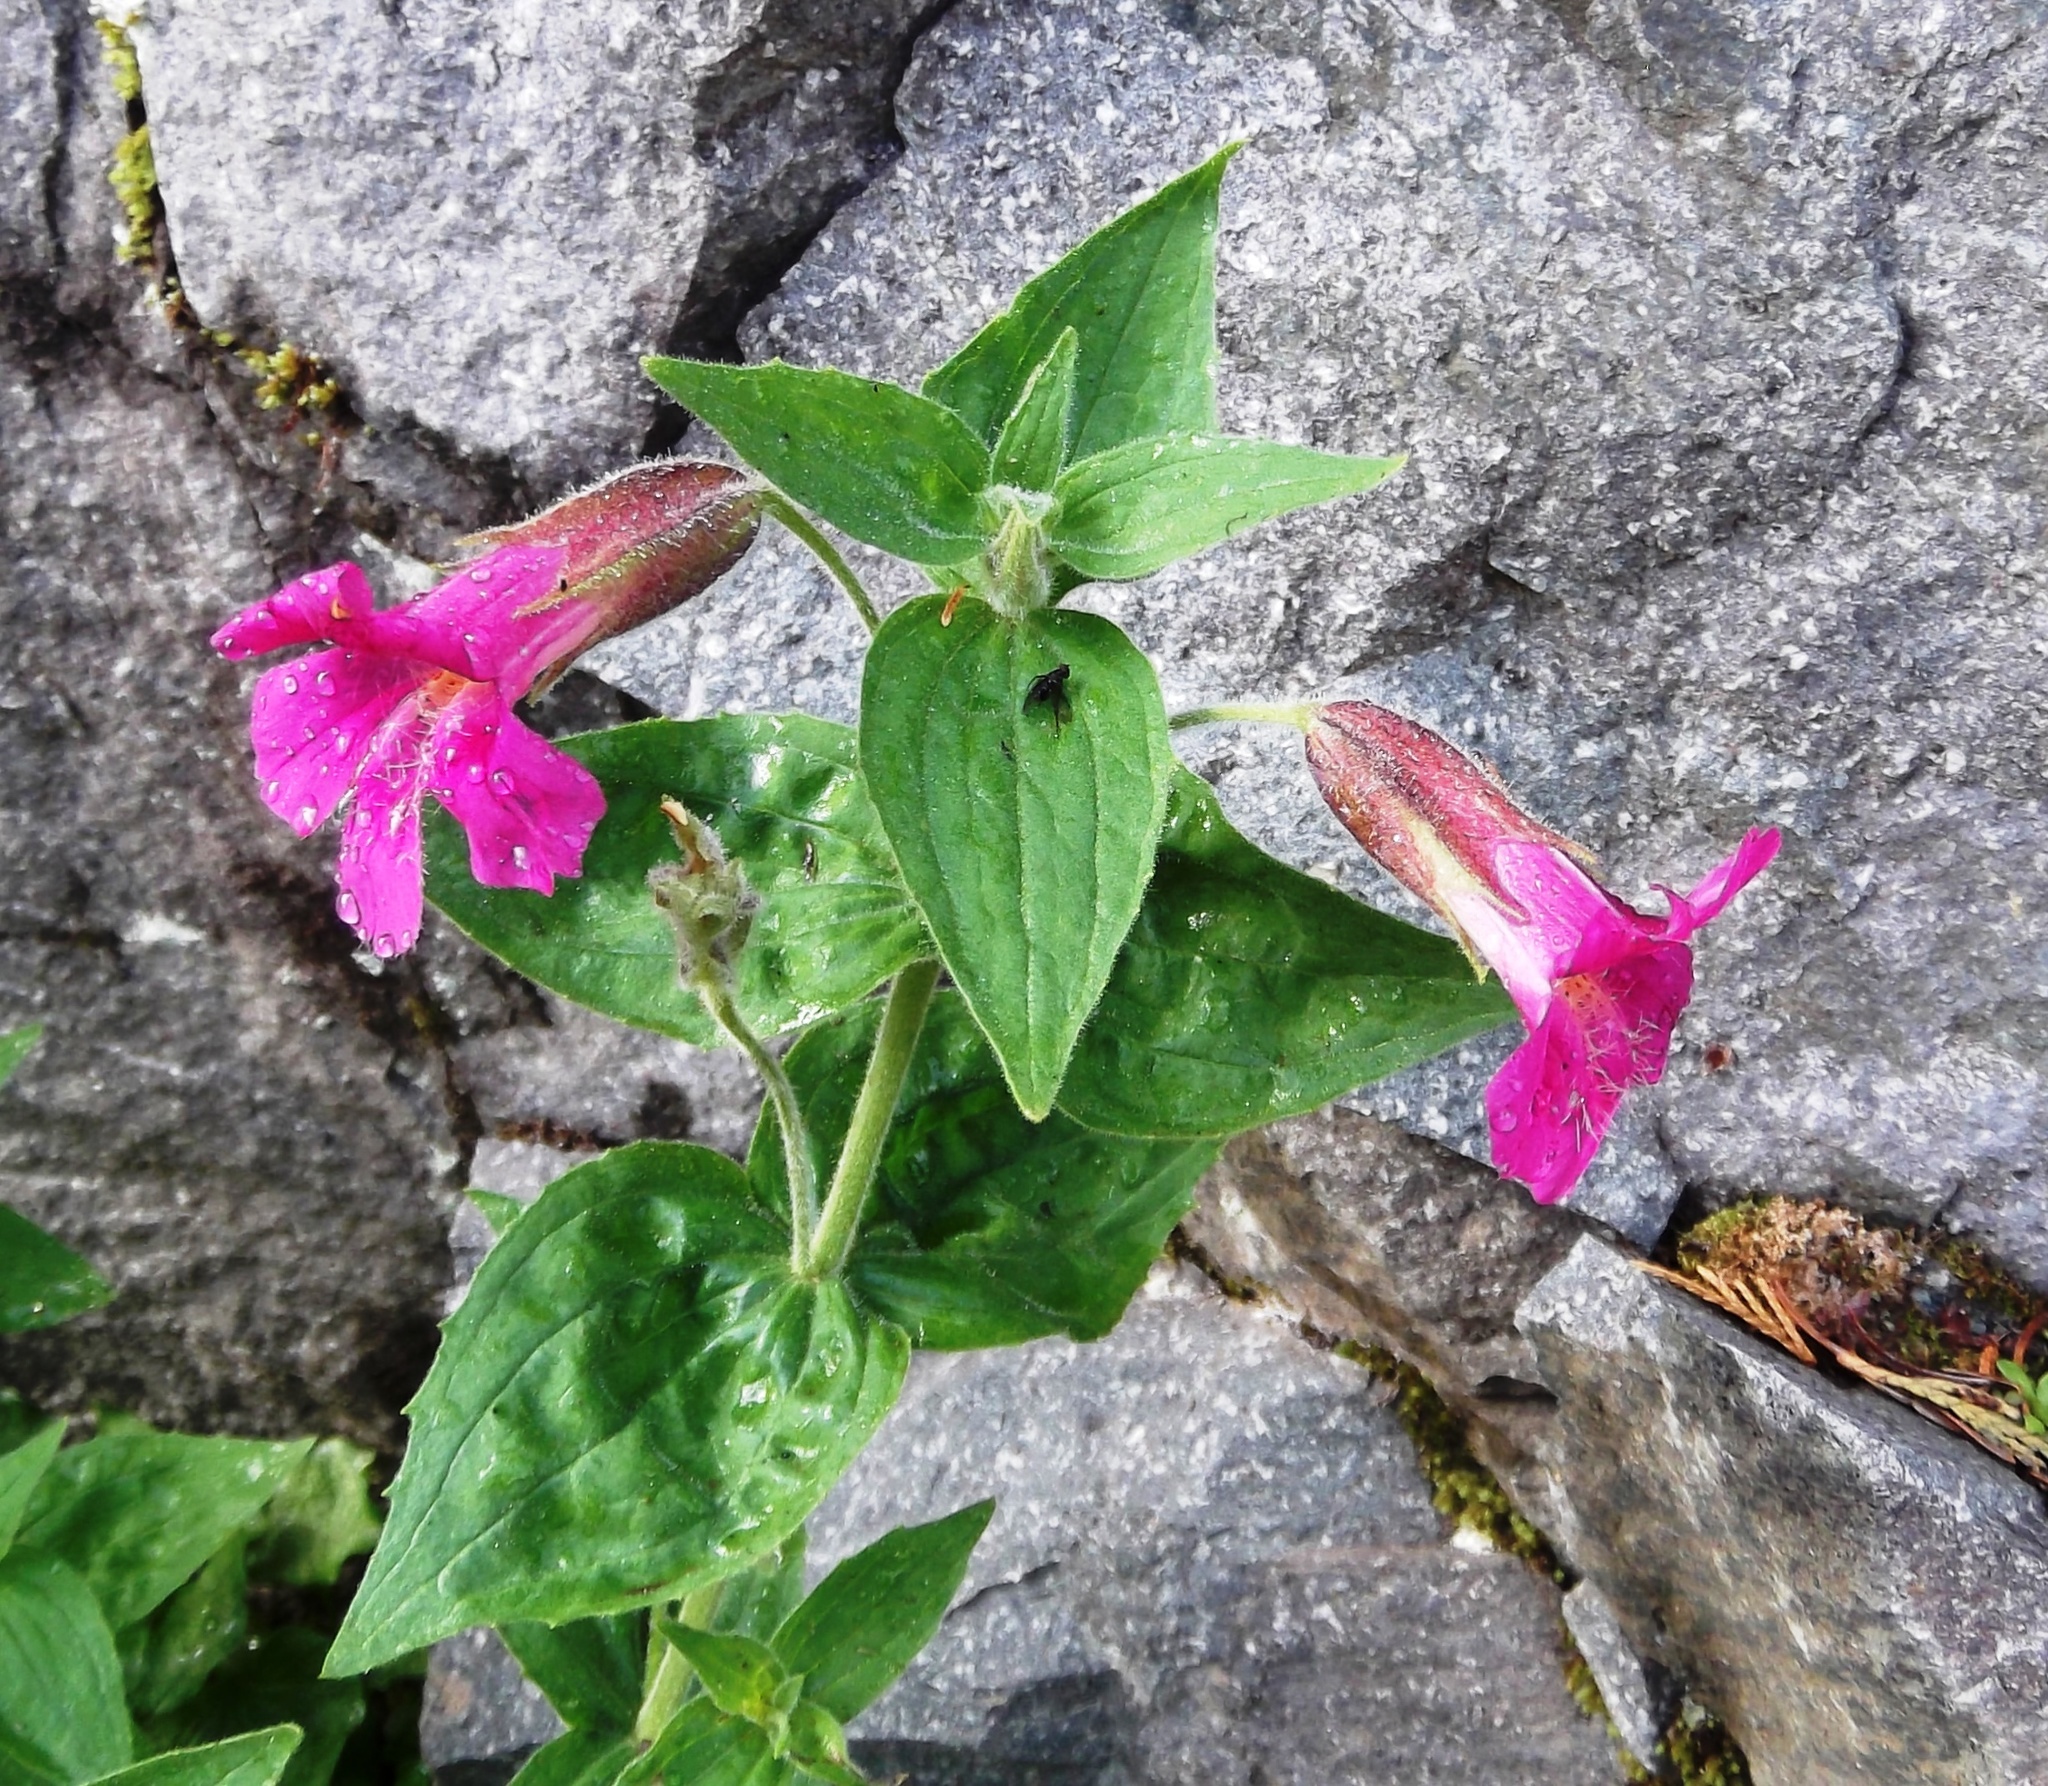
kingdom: Plantae
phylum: Tracheophyta
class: Magnoliopsida
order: Lamiales
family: Phrymaceae
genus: Erythranthe
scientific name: Erythranthe lewisii
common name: Lewis's monkey-flower
